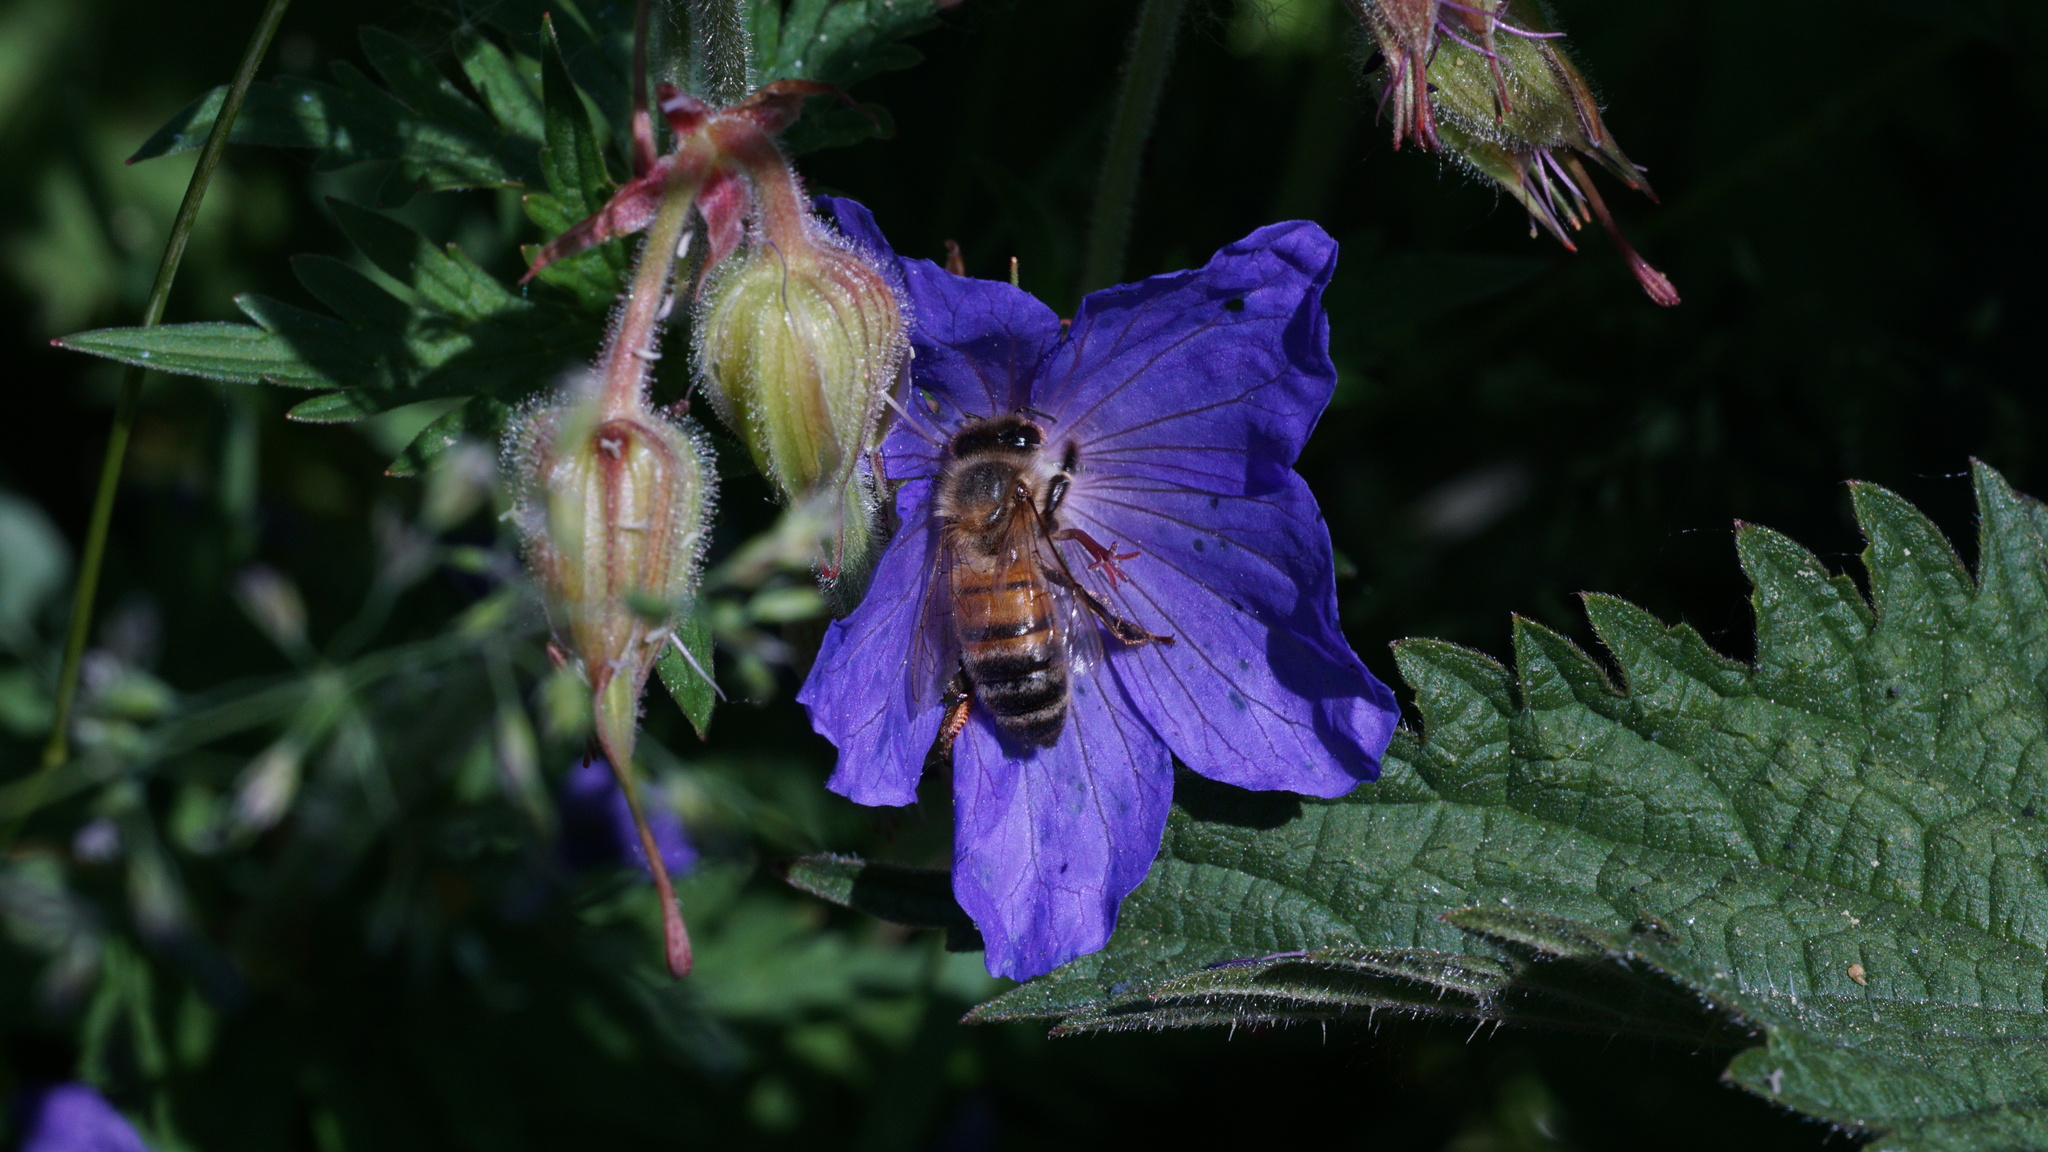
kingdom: Animalia
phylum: Arthropoda
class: Insecta
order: Hymenoptera
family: Apidae
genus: Apis
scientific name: Apis mellifera
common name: Honey bee
